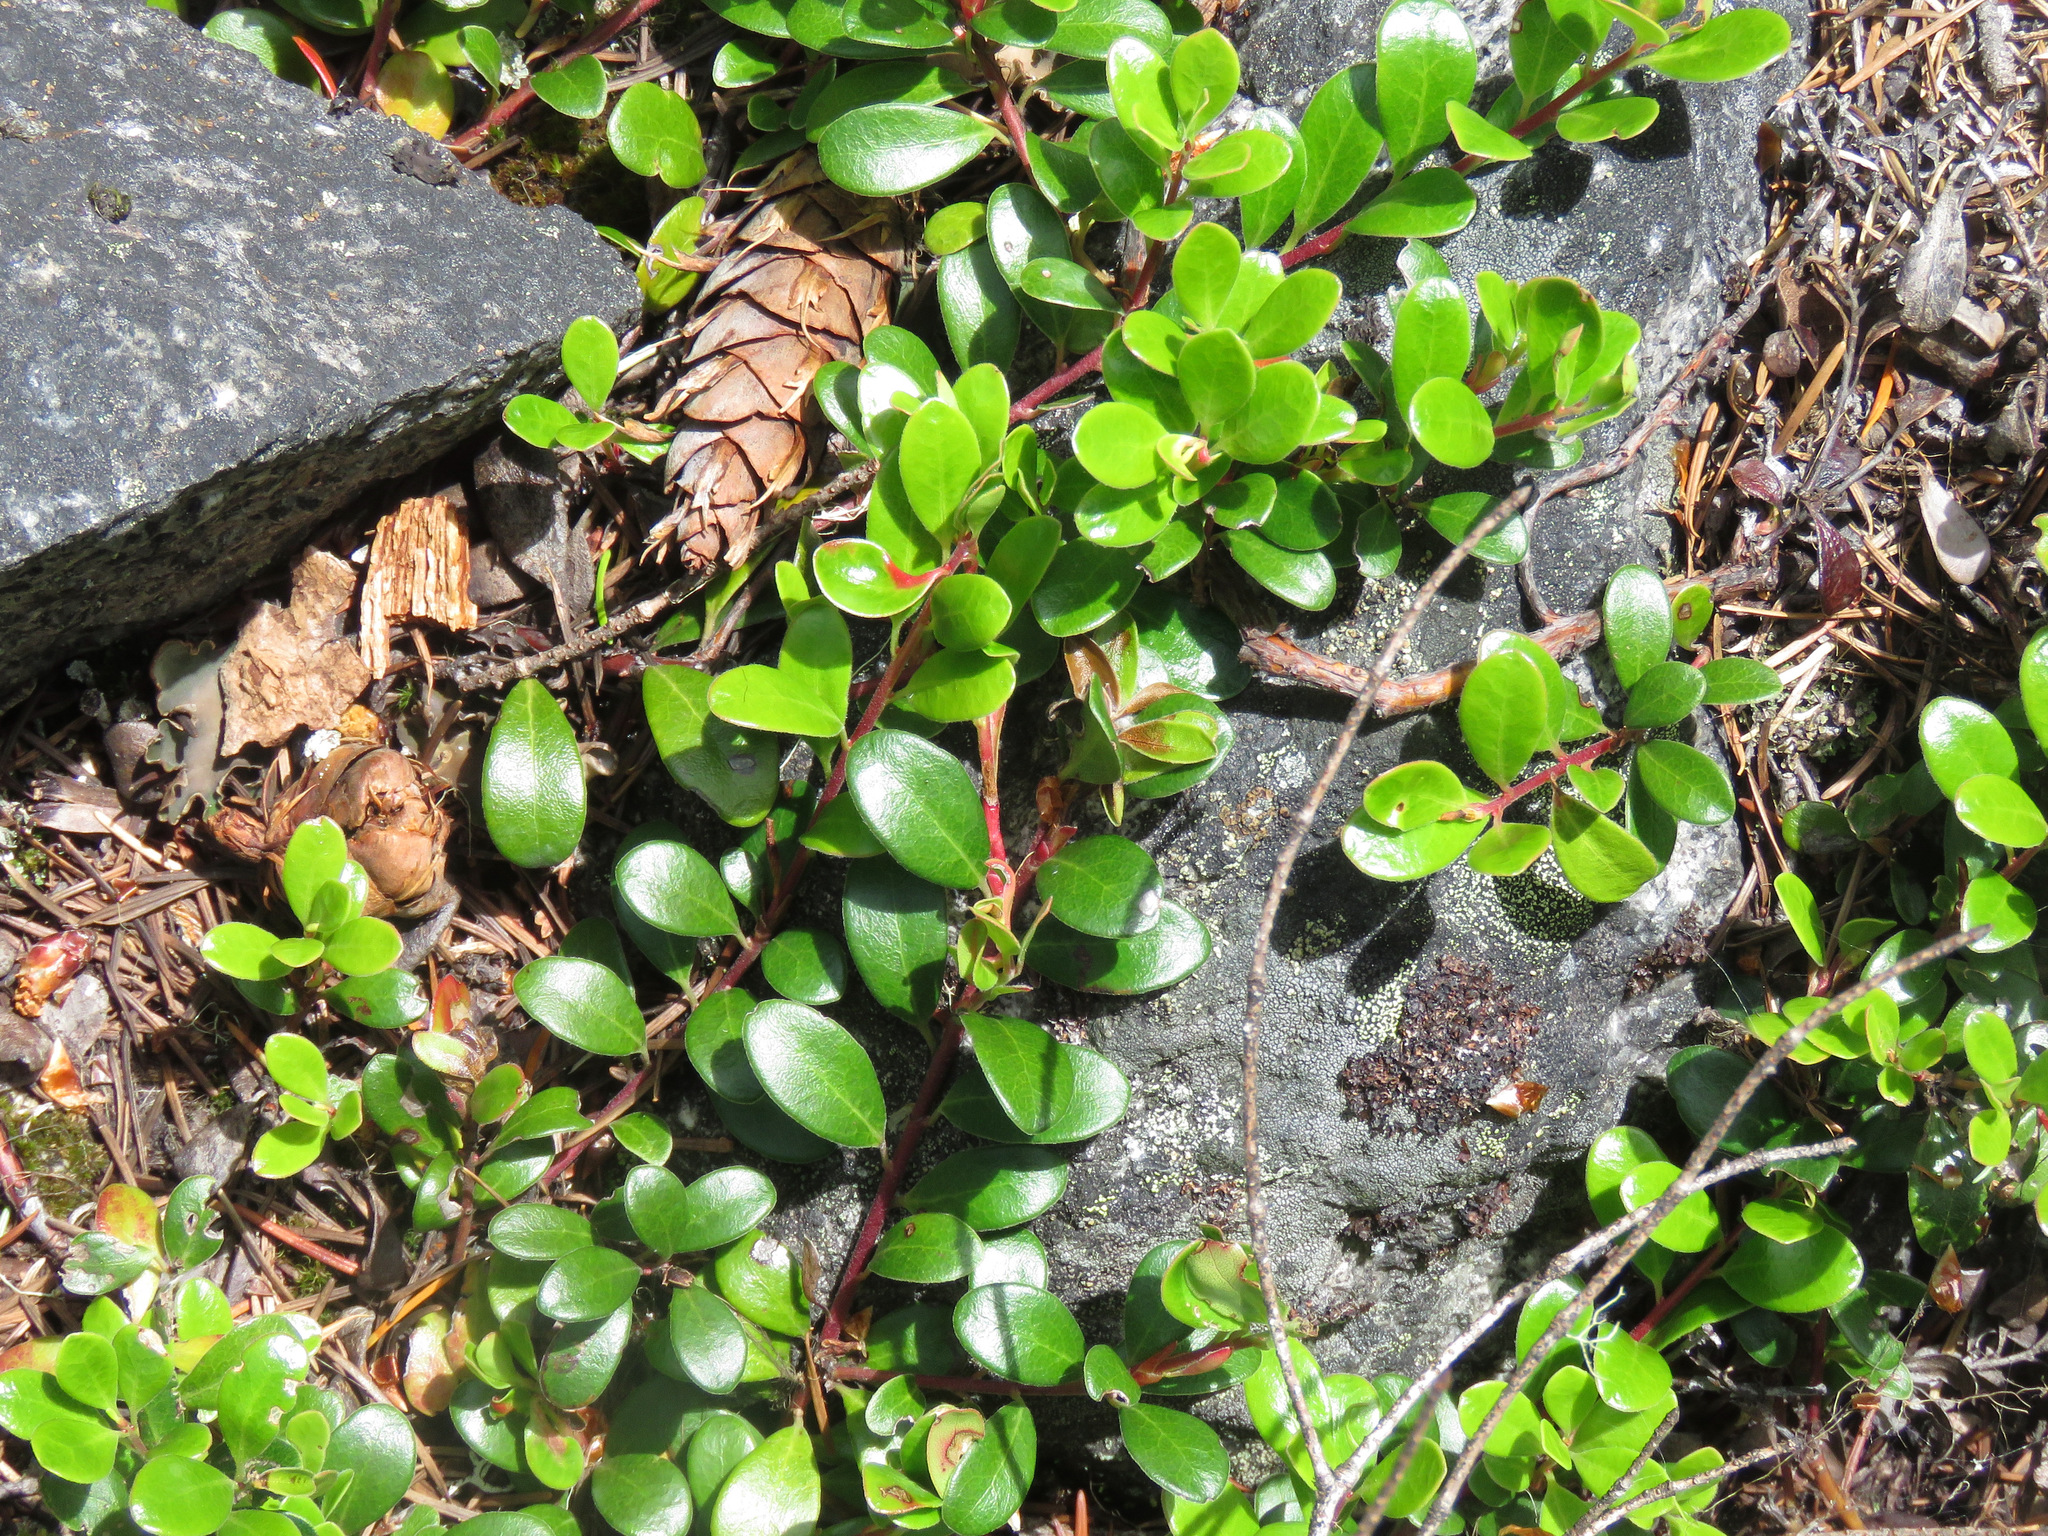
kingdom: Plantae
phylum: Tracheophyta
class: Magnoliopsida
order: Ericales
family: Ericaceae
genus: Arctostaphylos
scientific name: Arctostaphylos uva-ursi
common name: Bearberry
